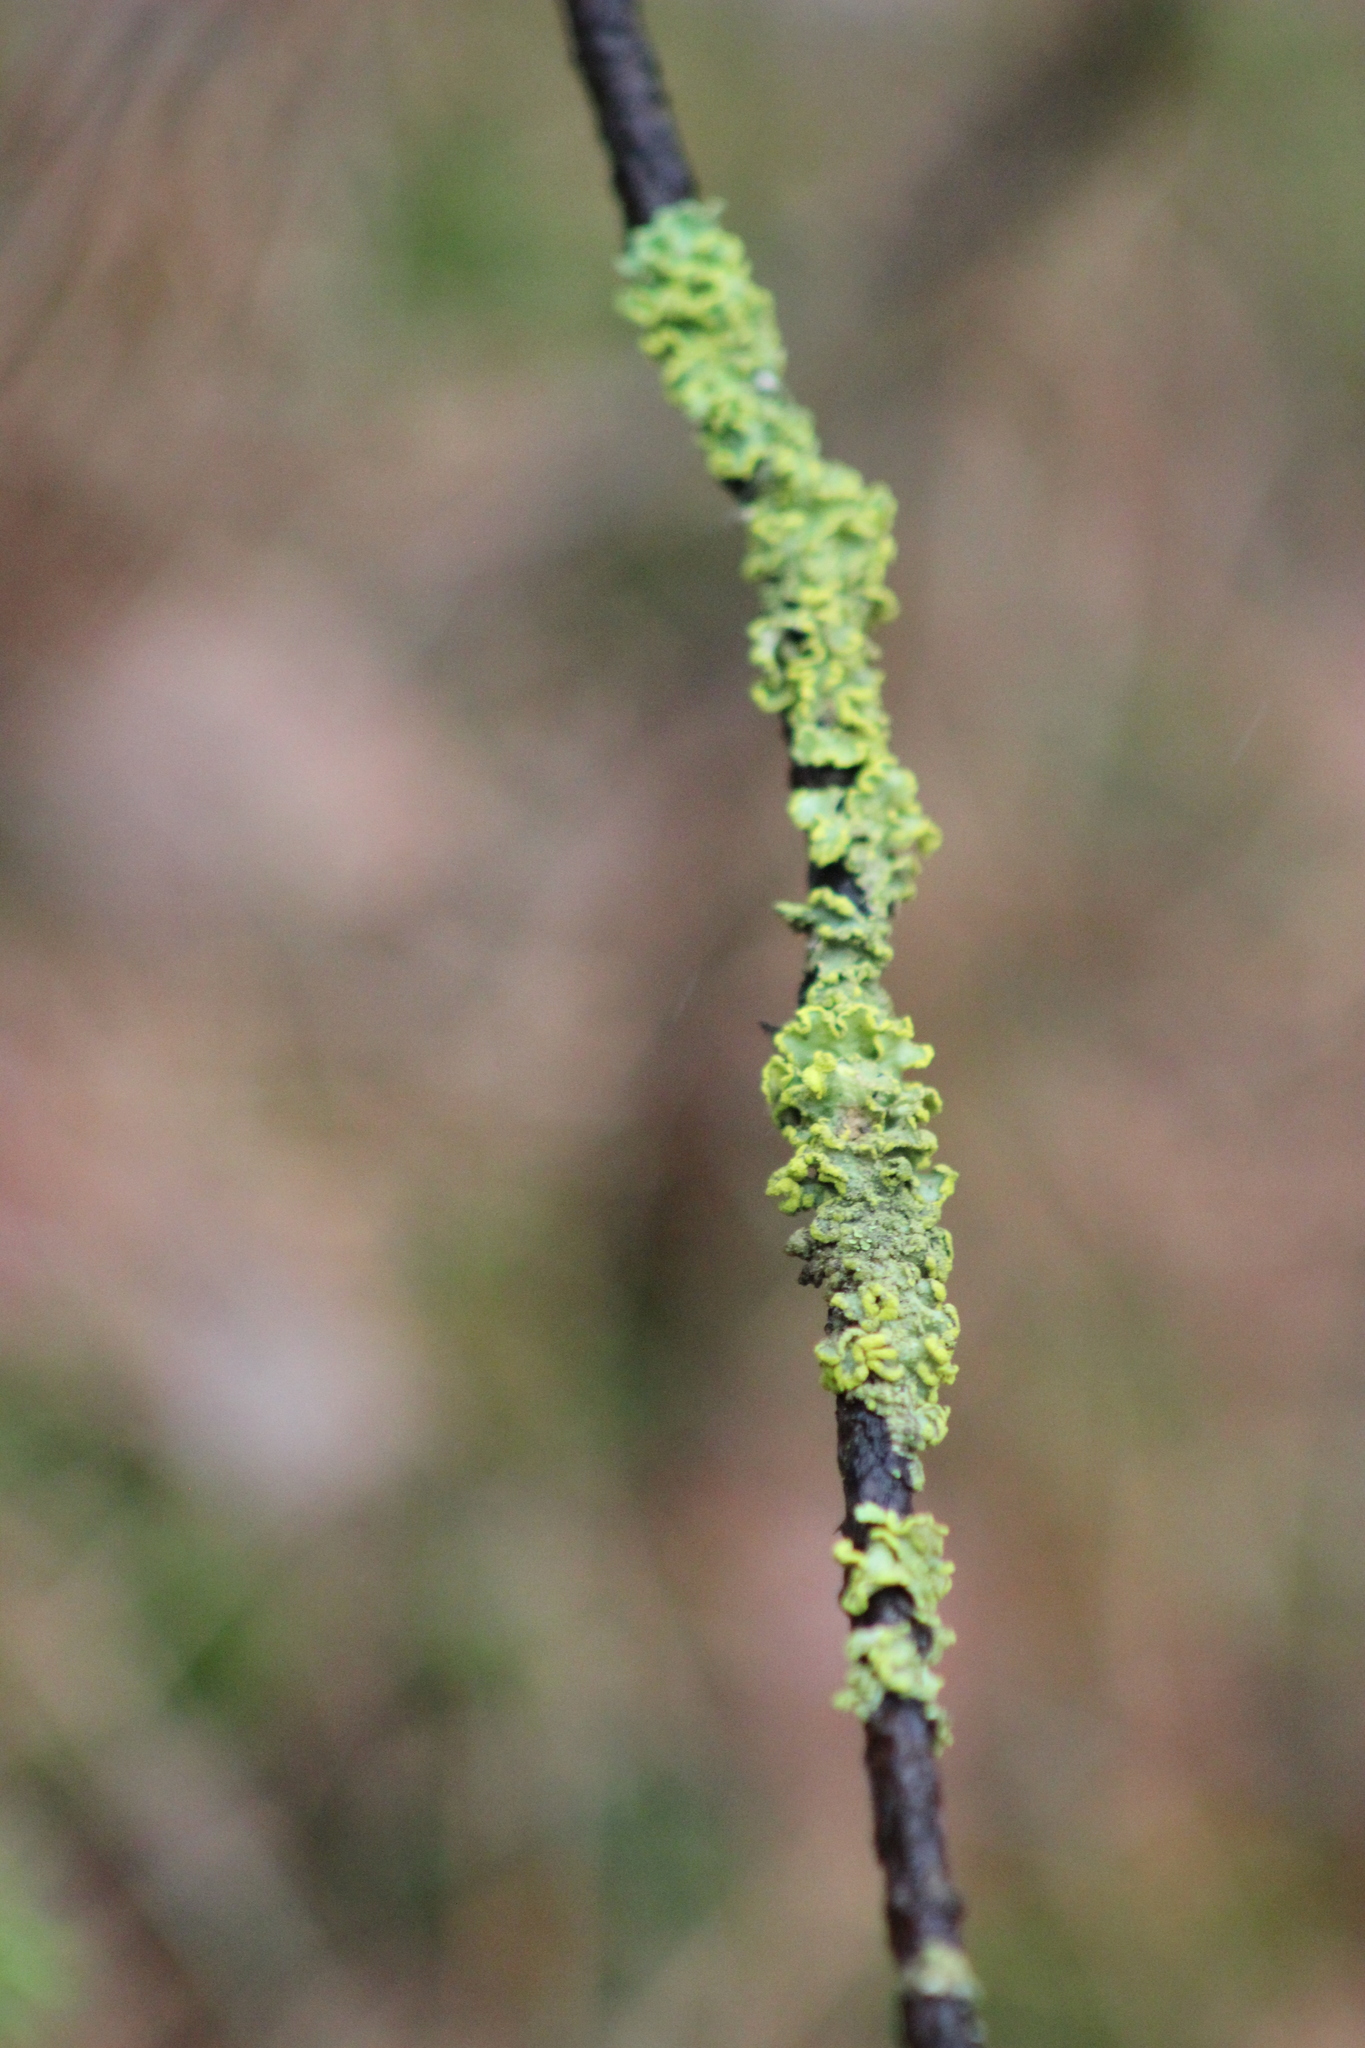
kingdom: Fungi
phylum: Ascomycota
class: Lecanoromycetes
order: Lecanorales
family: Parmeliaceae
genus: Vulpicida
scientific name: Vulpicida pinastri
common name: Powdered sunshine lichen
